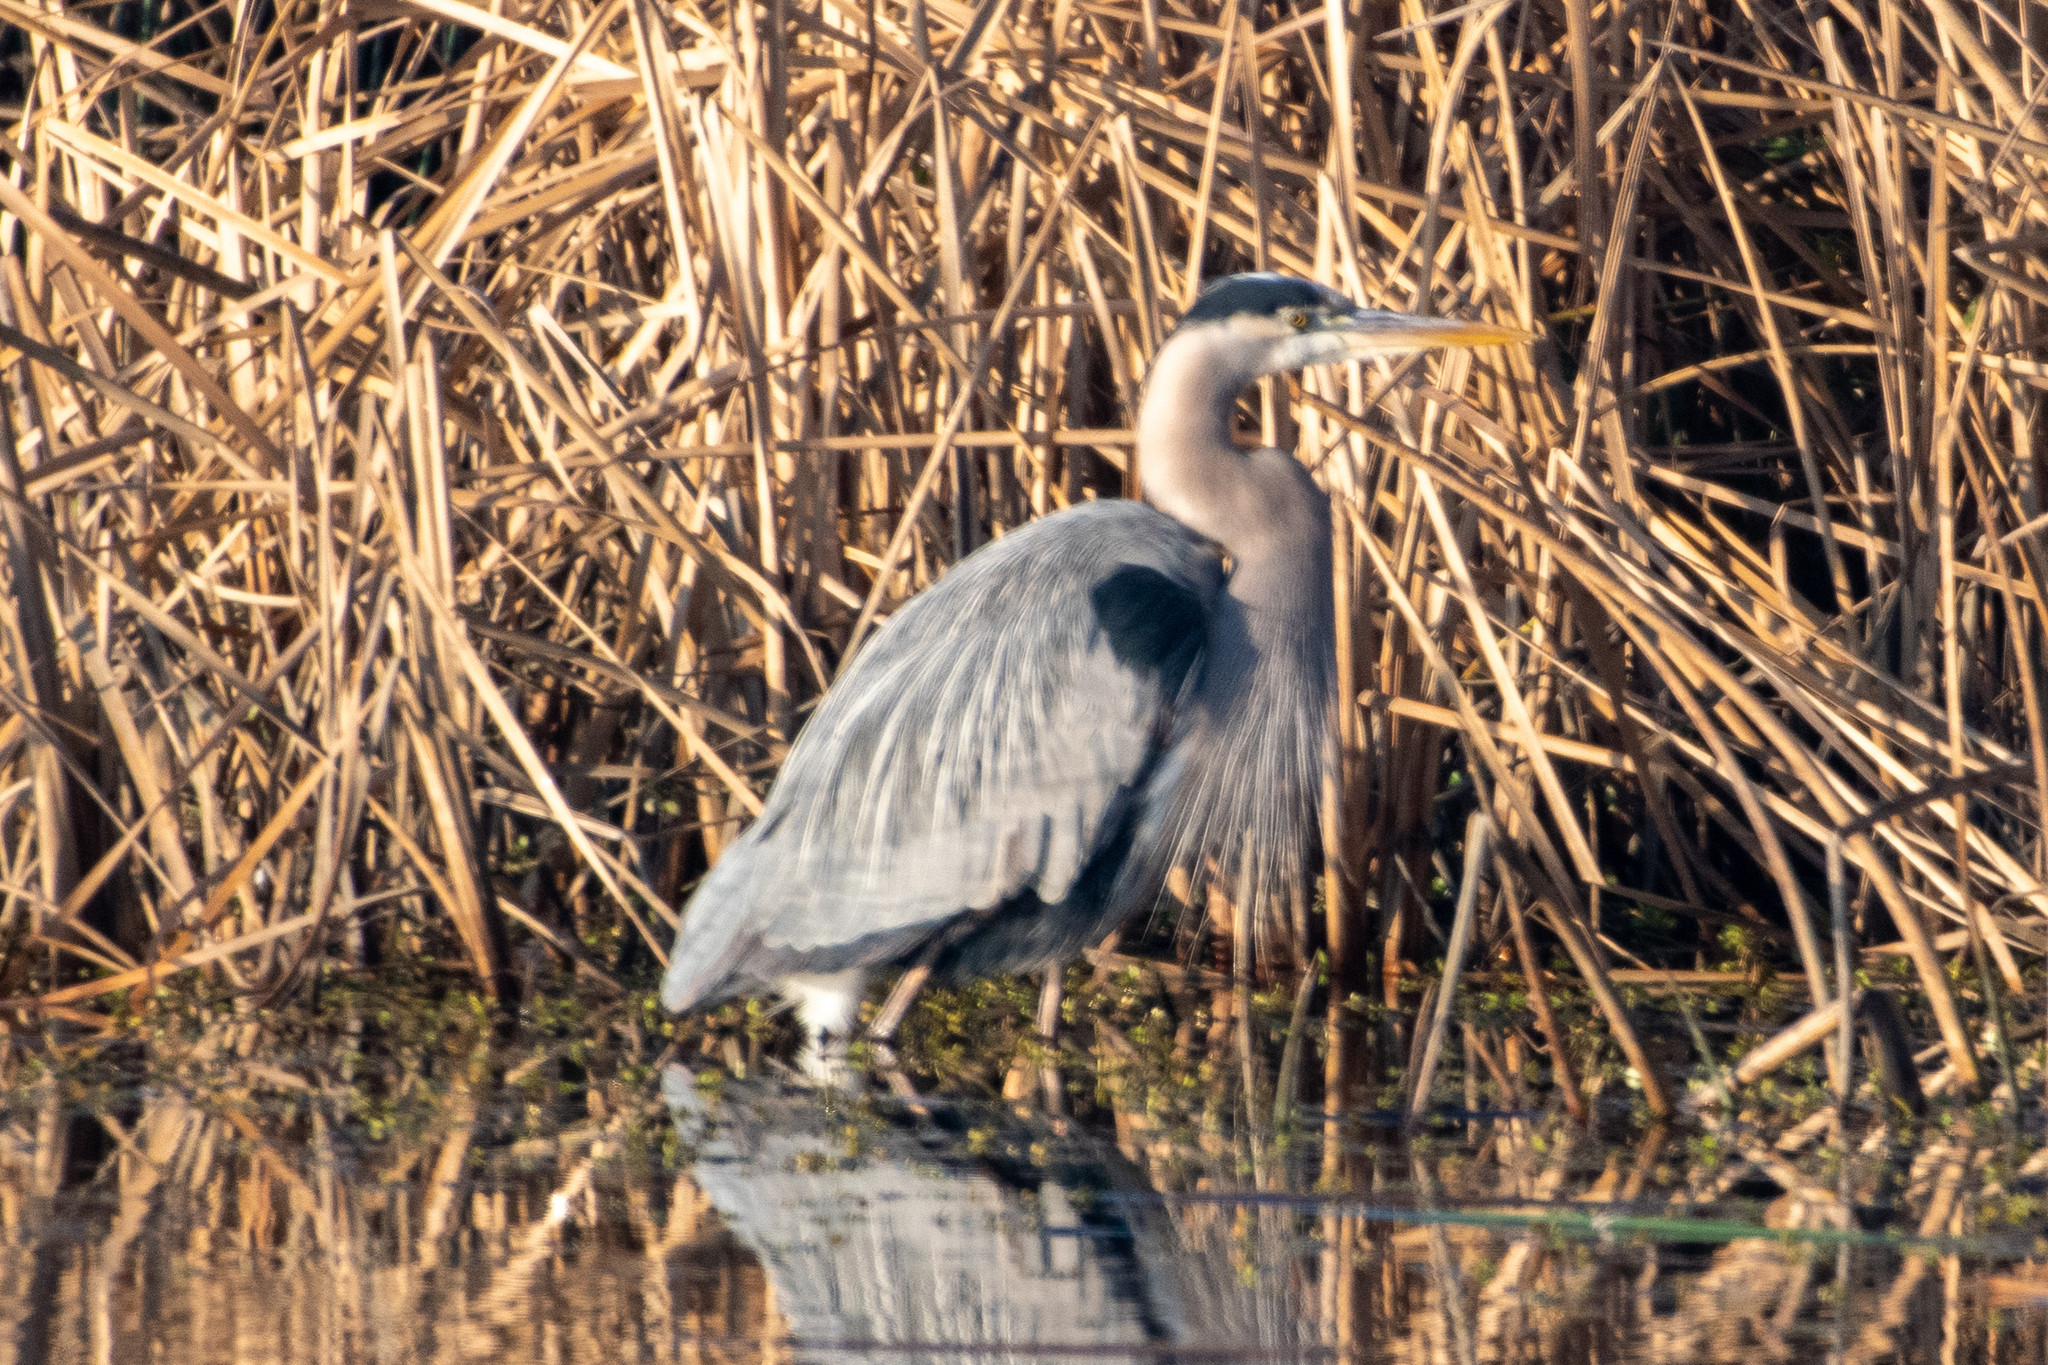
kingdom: Animalia
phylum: Chordata
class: Aves
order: Pelecaniformes
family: Ardeidae
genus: Ardea
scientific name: Ardea herodias
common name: Great blue heron
